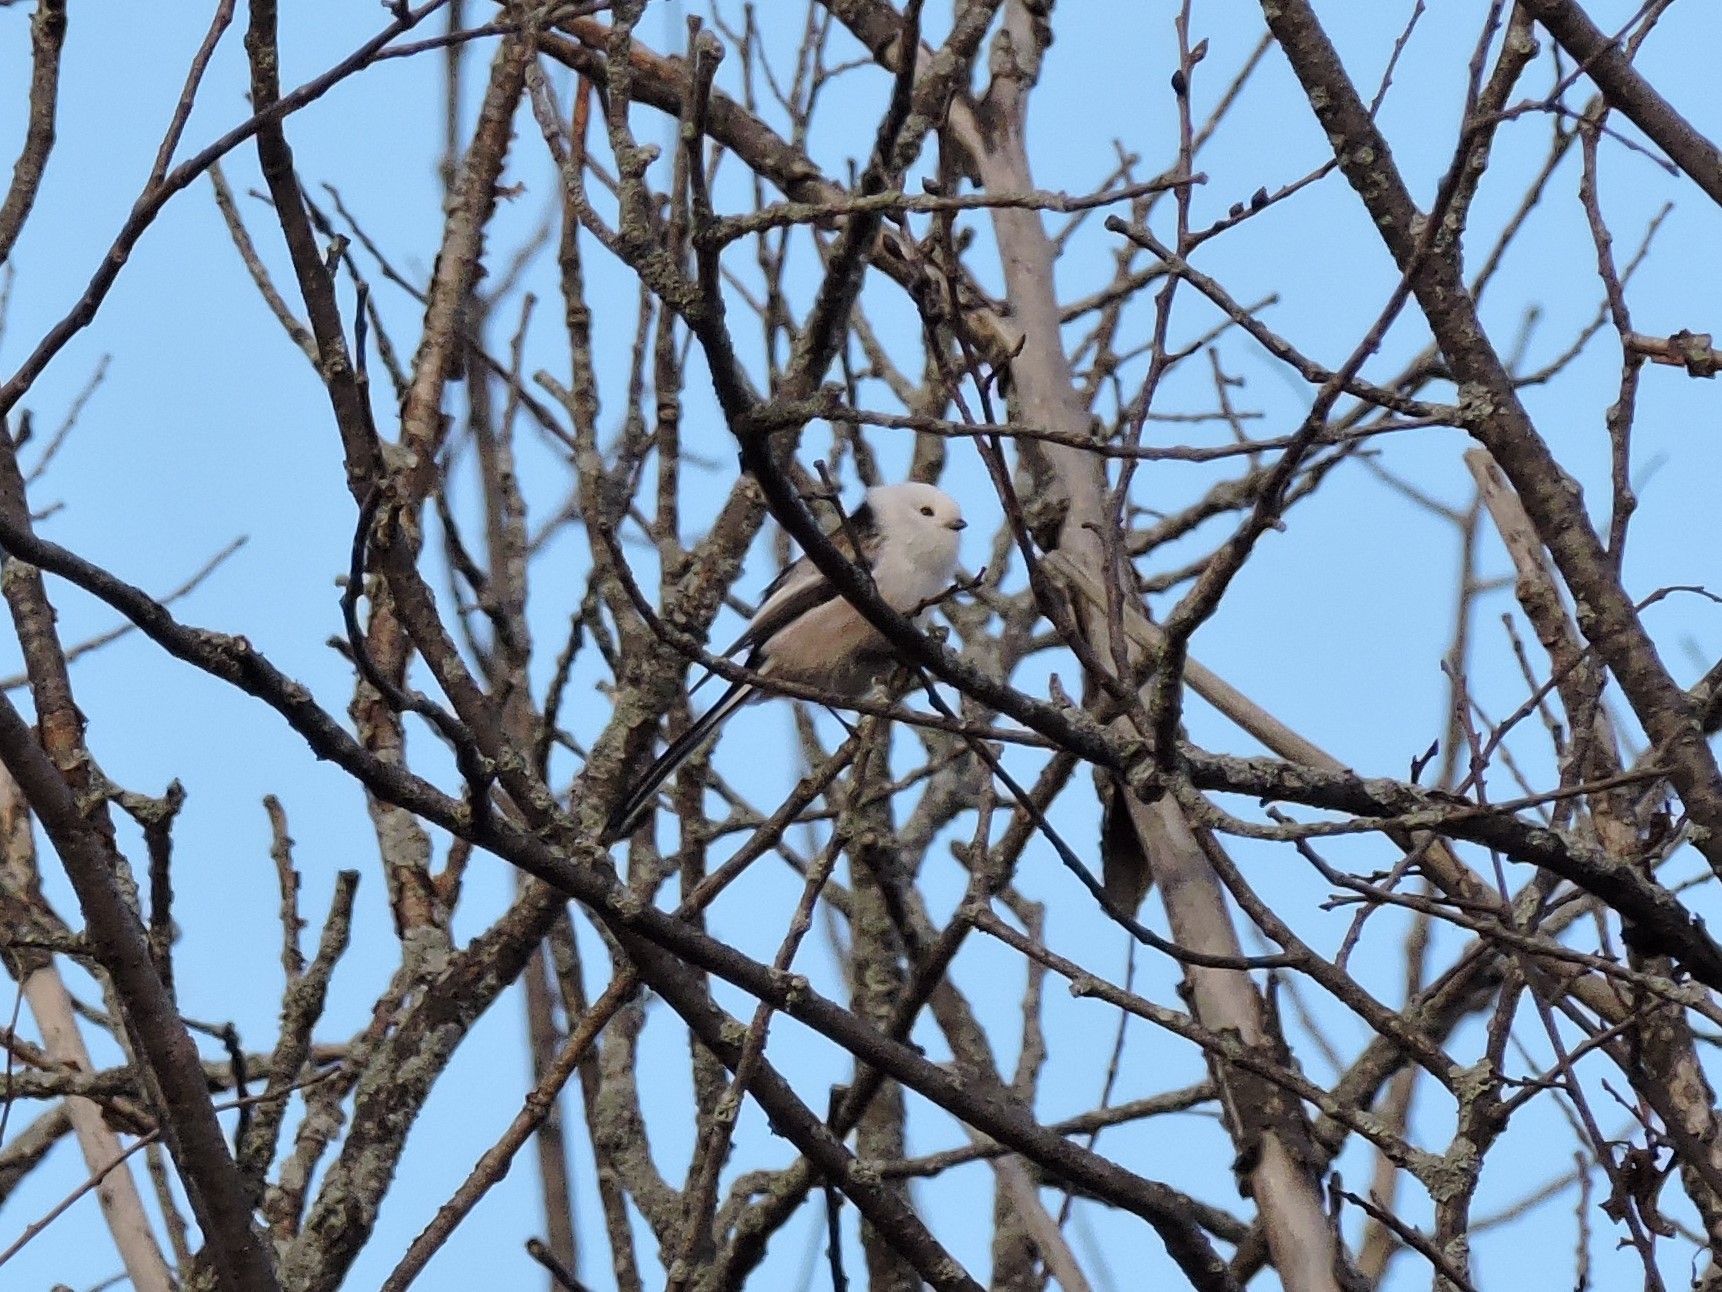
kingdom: Animalia
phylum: Chordata
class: Aves
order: Passeriformes
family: Aegithalidae
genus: Aegithalos
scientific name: Aegithalos caudatus
